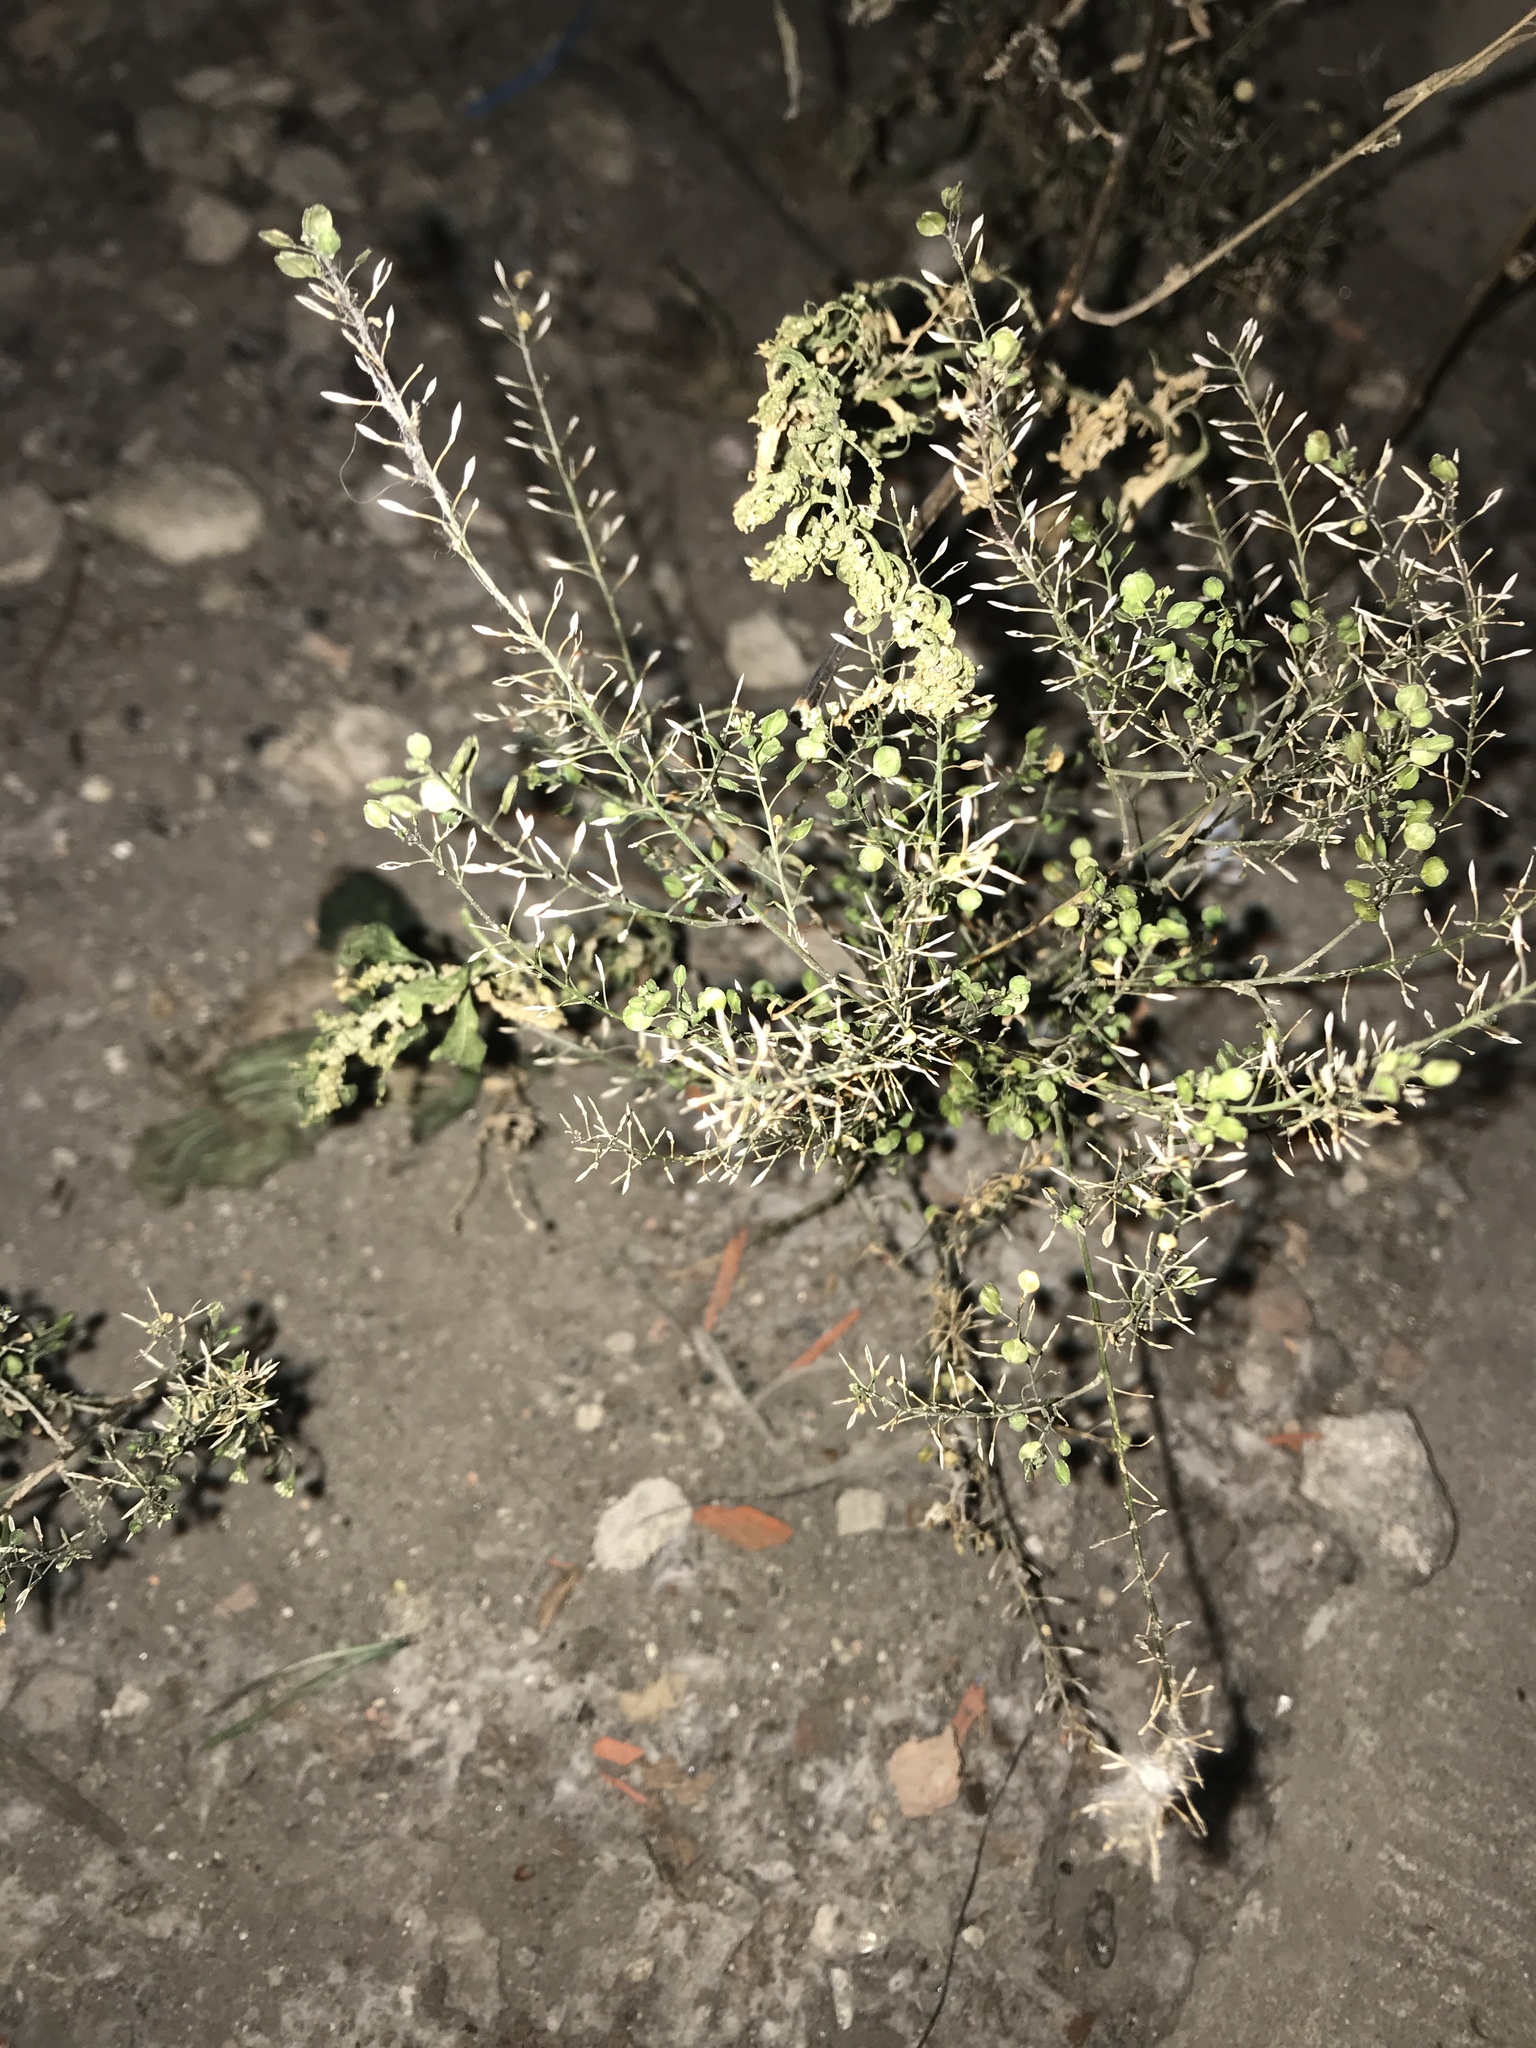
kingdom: Plantae
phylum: Tracheophyta
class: Magnoliopsida
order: Brassicales
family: Brassicaceae
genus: Lepidium
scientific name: Lepidium virginicum
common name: Least pepperwort
